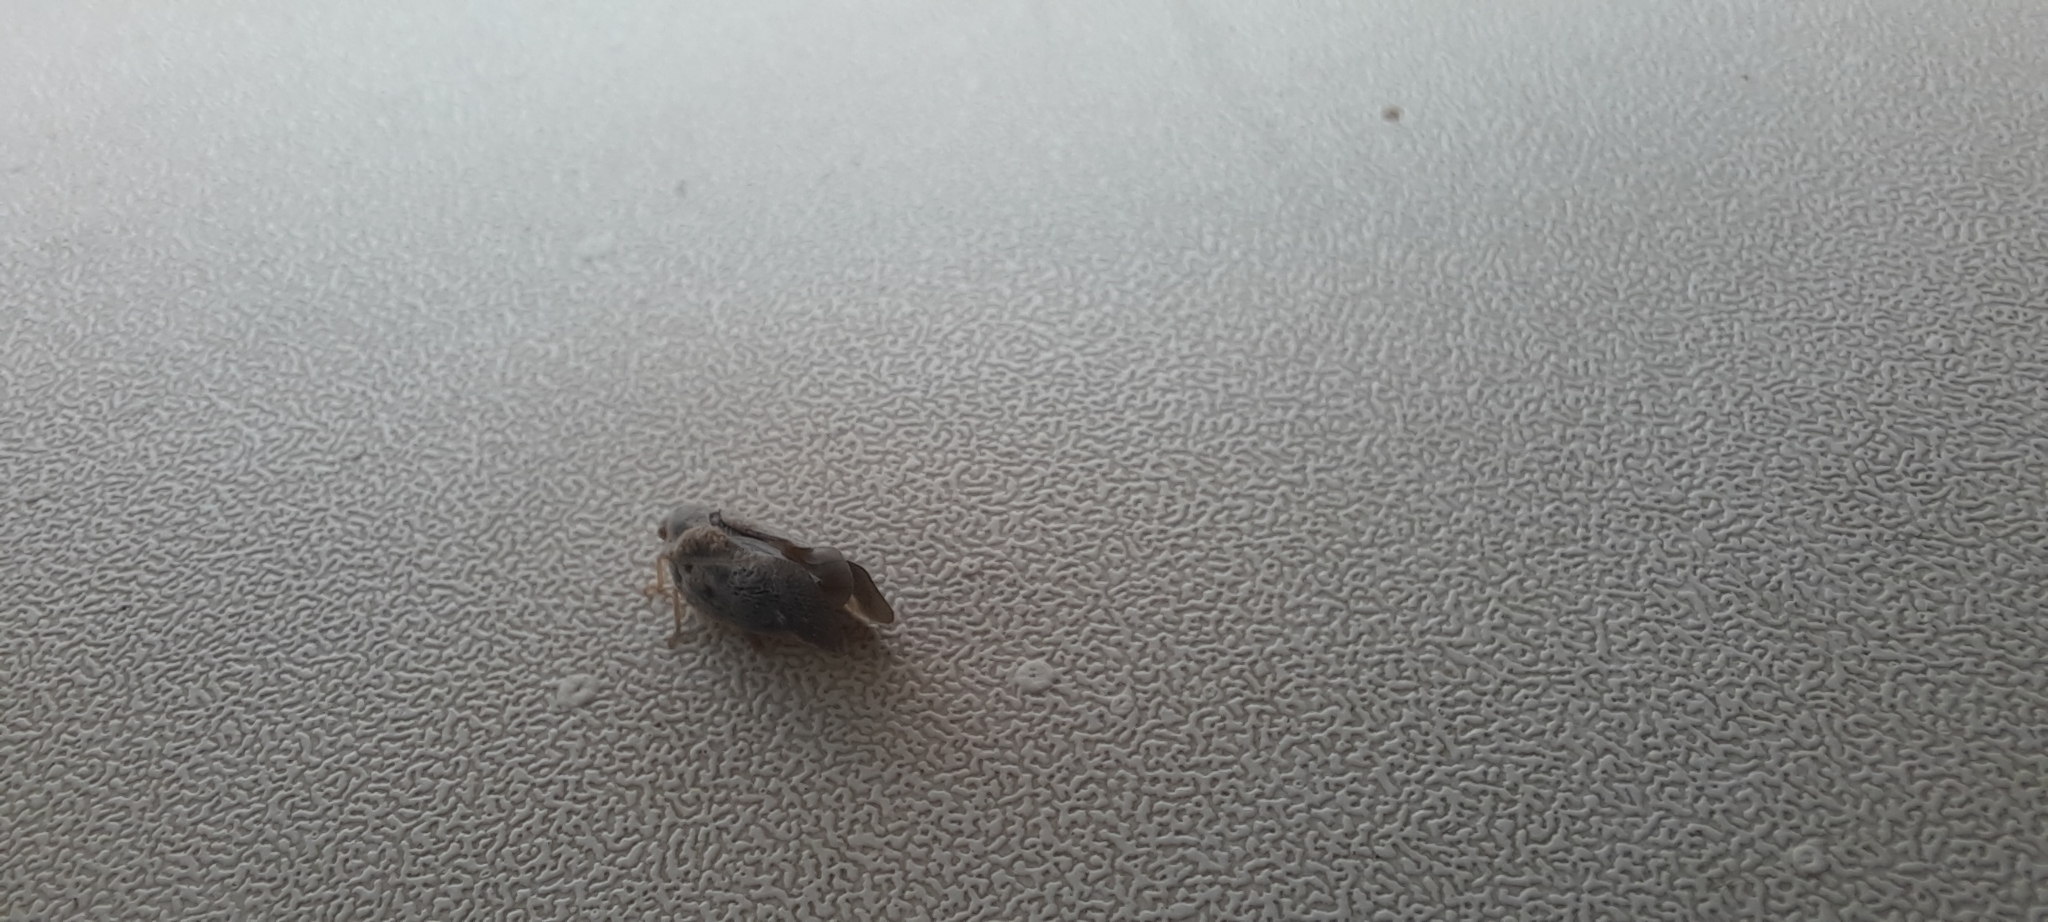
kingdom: Animalia
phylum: Arthropoda
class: Insecta
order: Hemiptera
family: Flatidae
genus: Metcalfa
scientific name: Metcalfa pruinosa
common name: Citrus flatid planthopper
